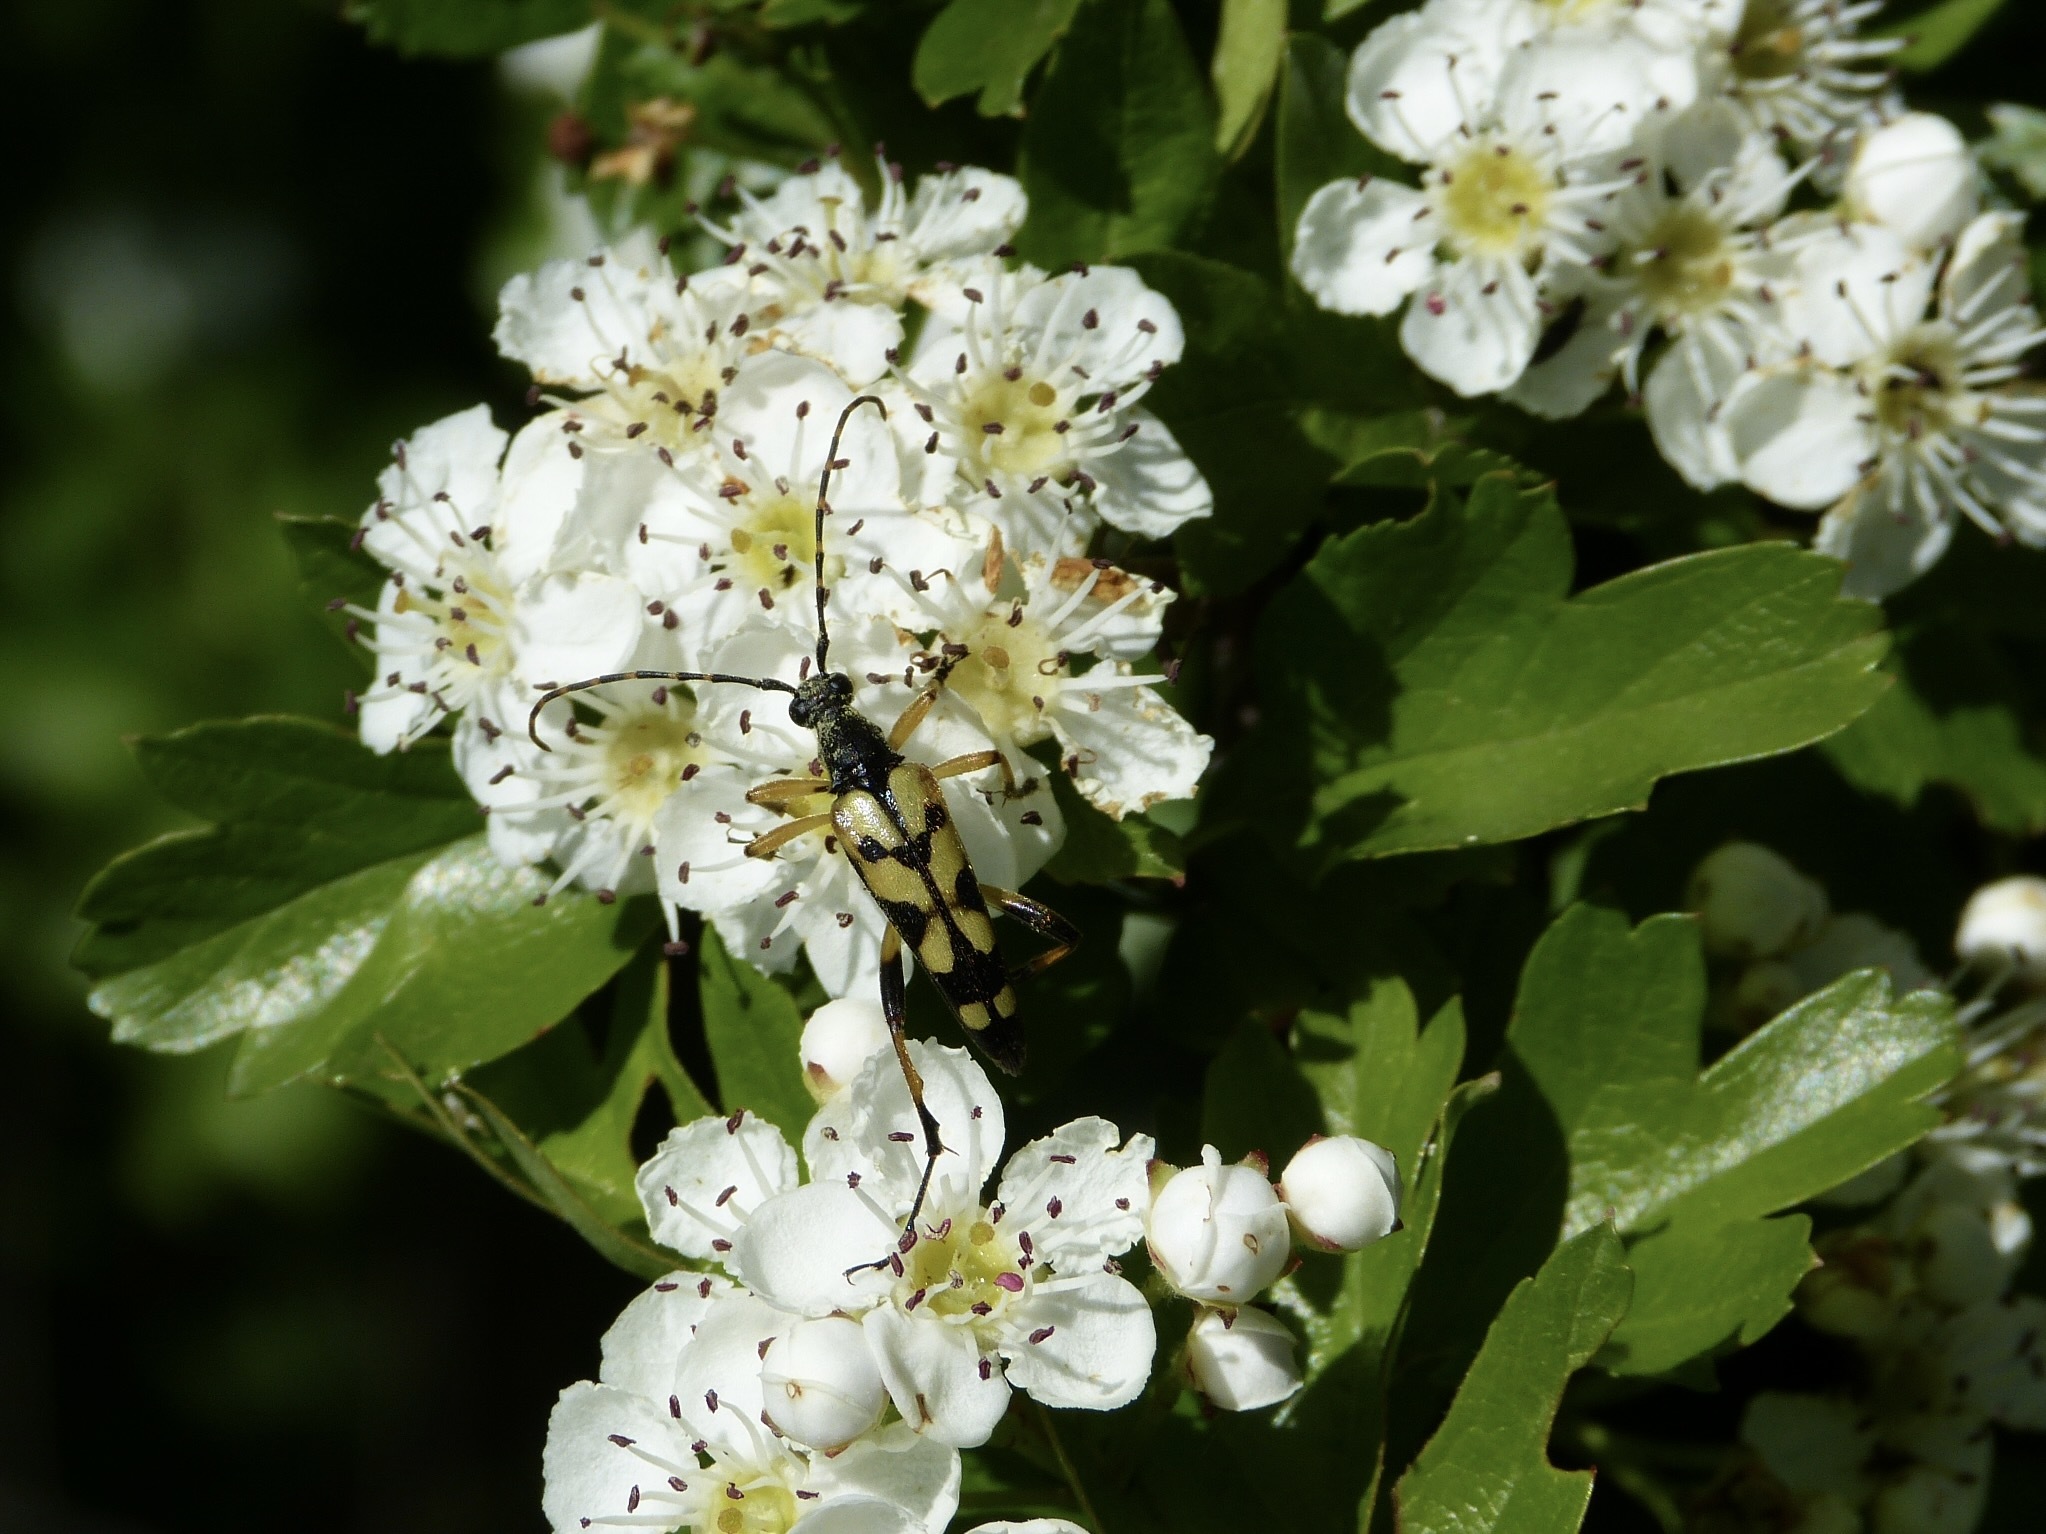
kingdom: Animalia
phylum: Arthropoda
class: Insecta
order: Coleoptera
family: Cerambycidae
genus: Rutpela
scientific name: Rutpela maculata
